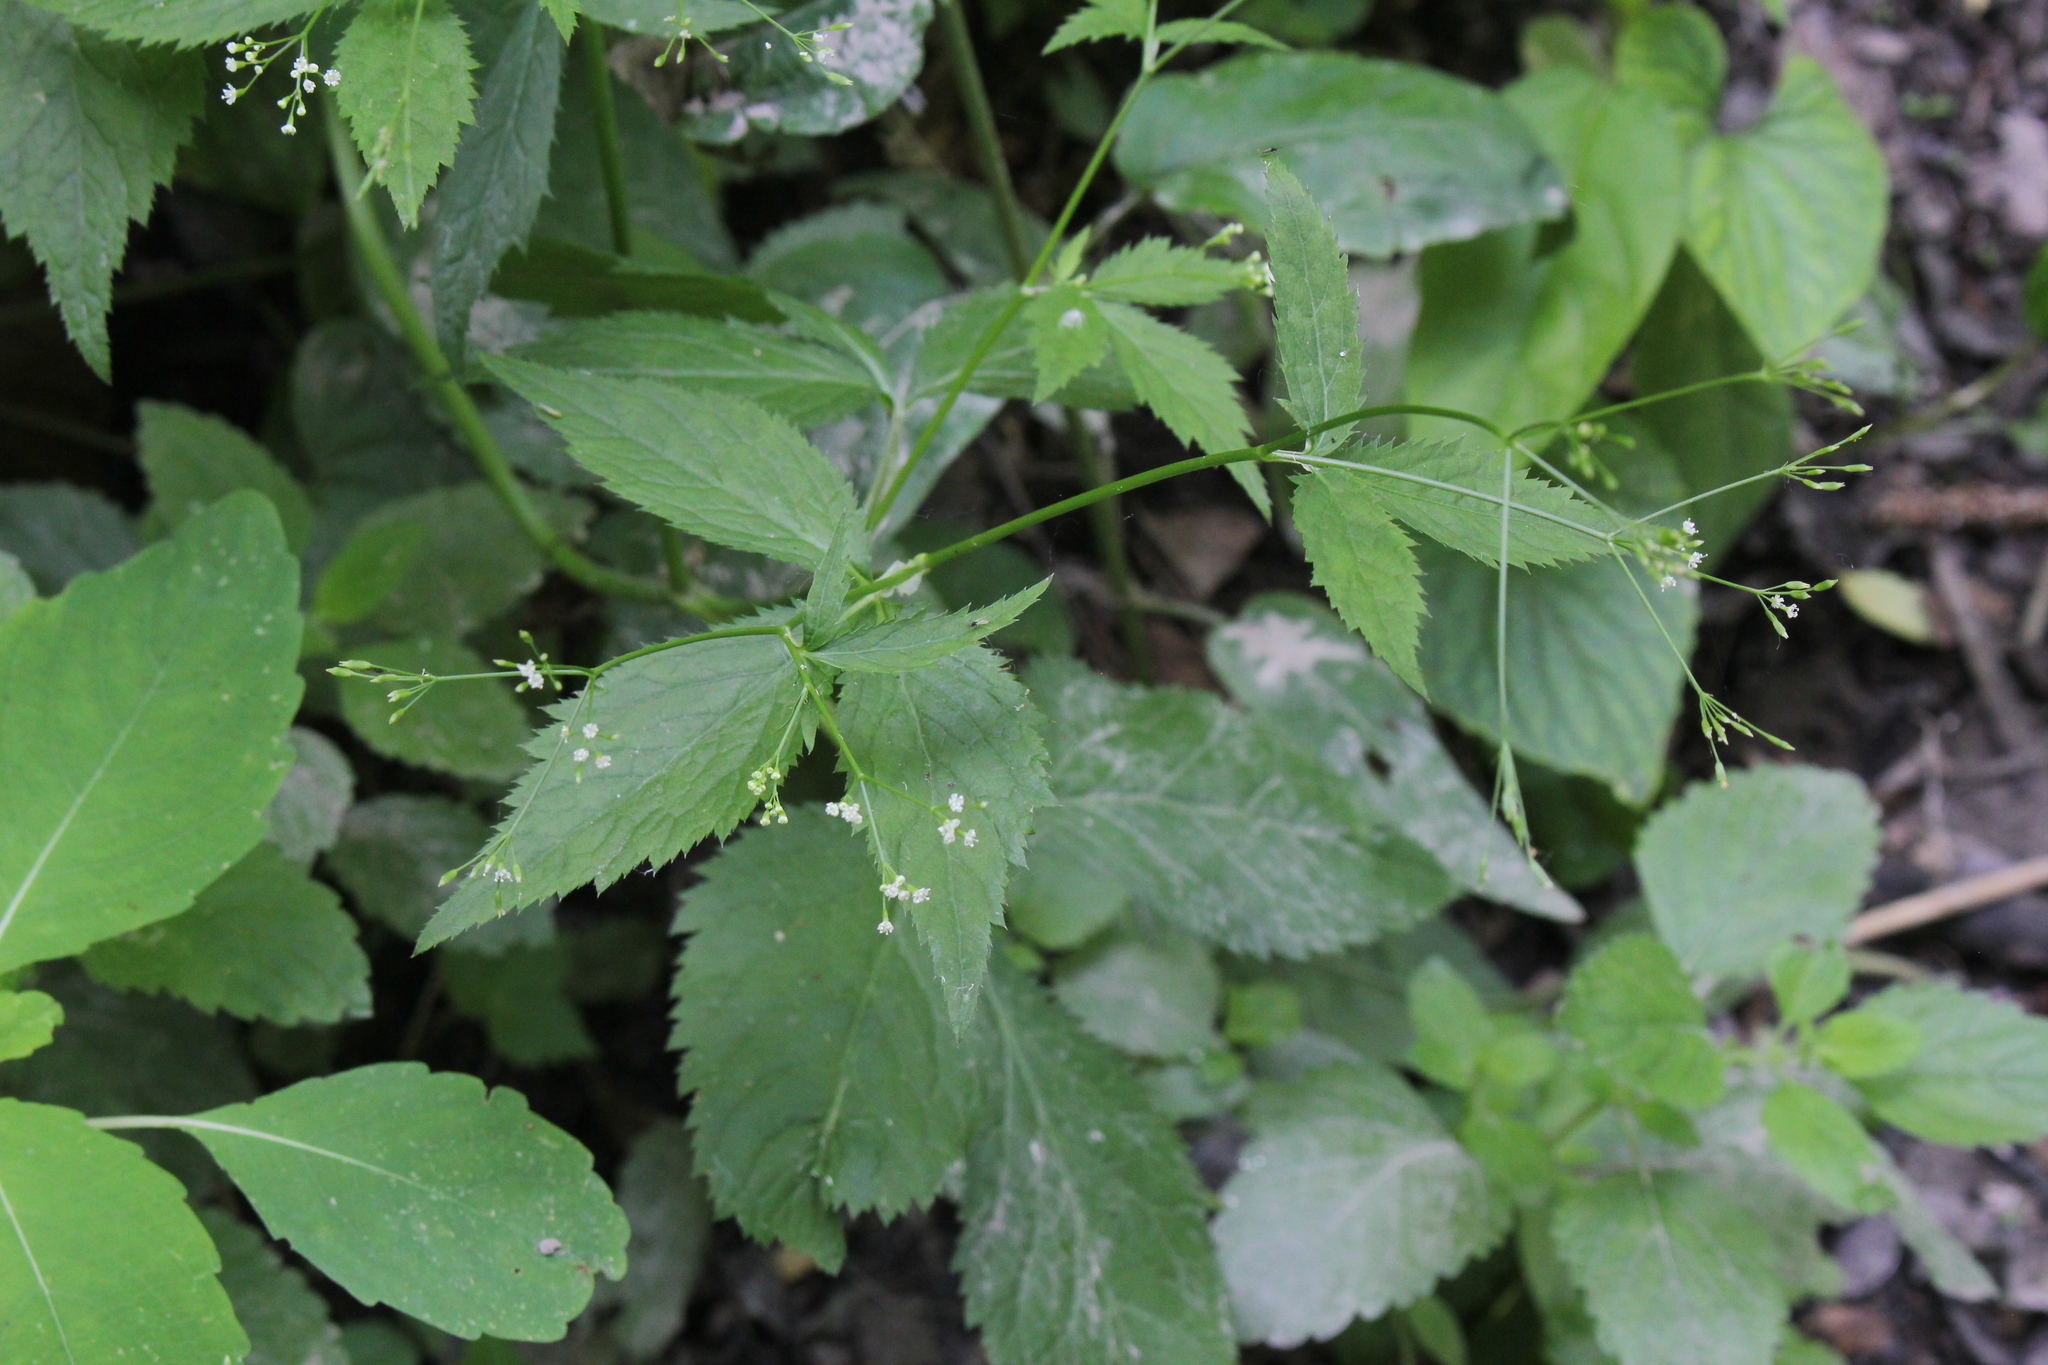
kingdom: Plantae
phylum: Tracheophyta
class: Magnoliopsida
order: Apiales
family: Apiaceae
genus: Cryptotaenia
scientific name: Cryptotaenia canadensis
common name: Honewort
